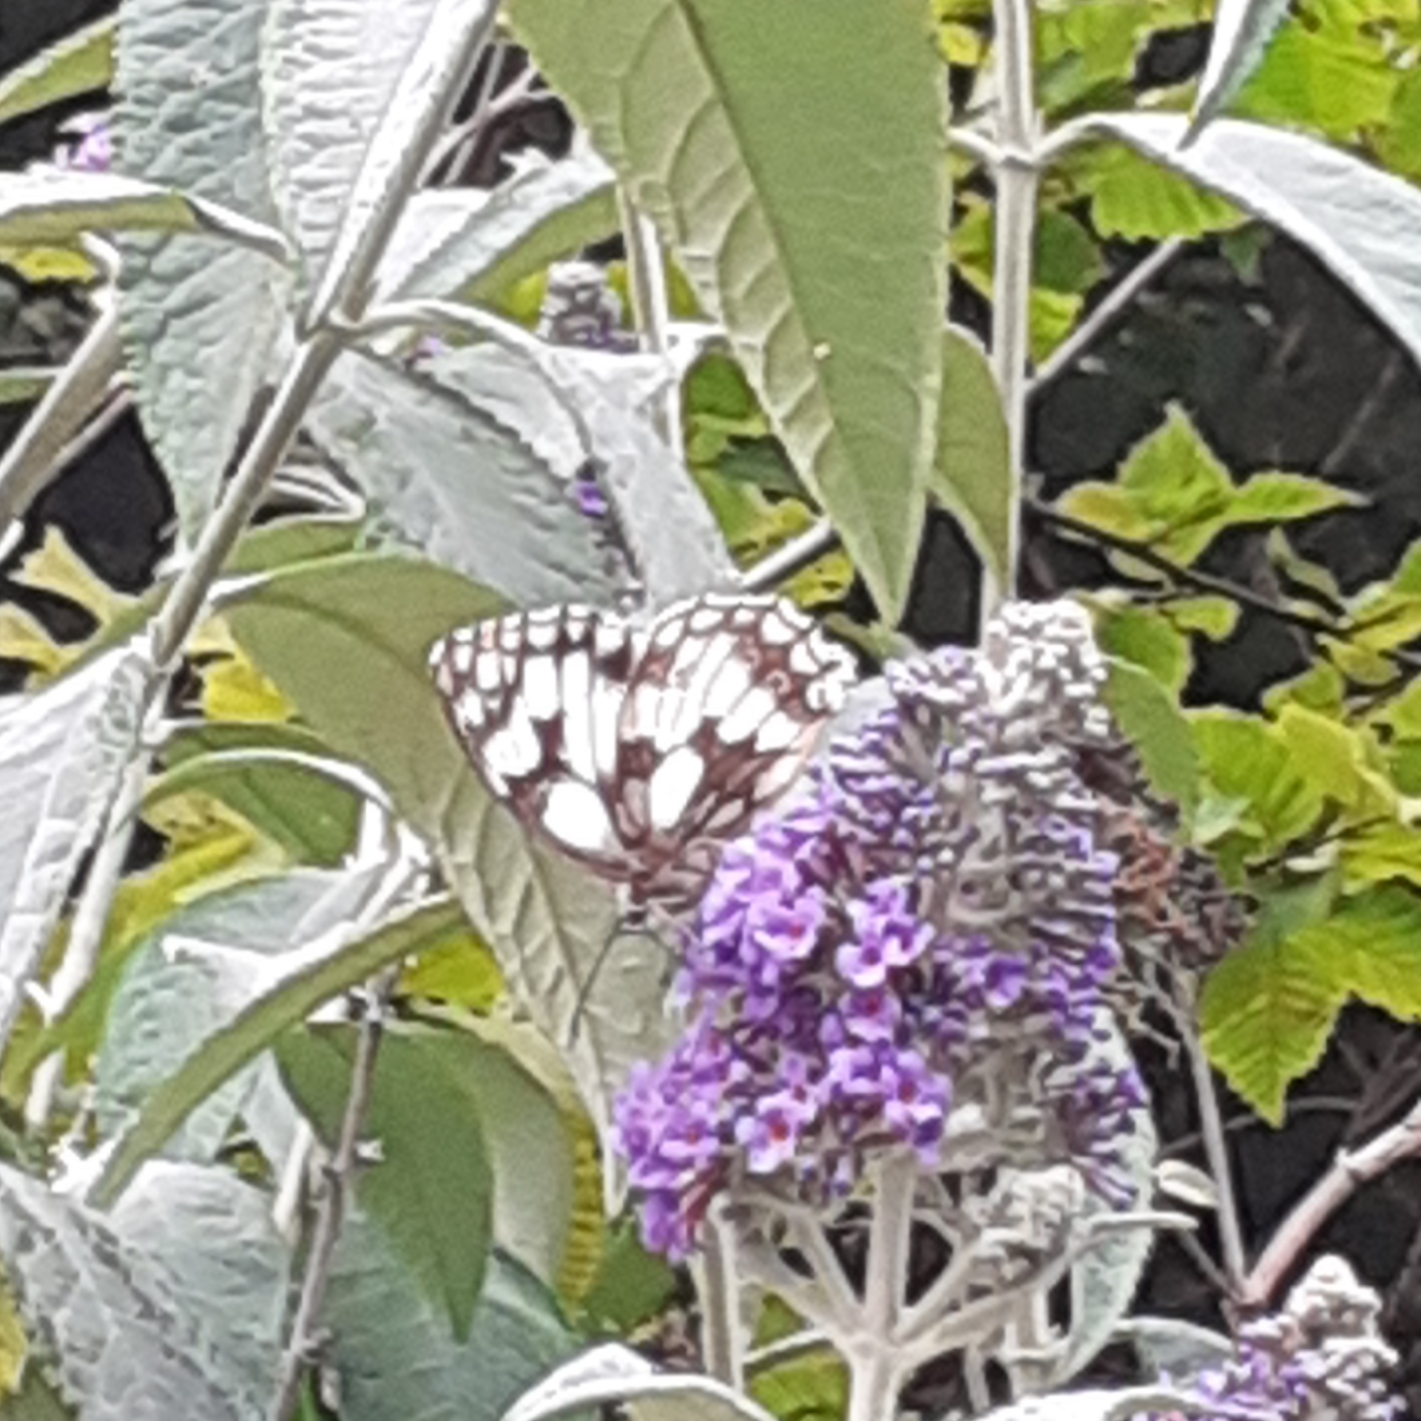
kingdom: Animalia
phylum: Arthropoda
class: Insecta
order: Lepidoptera
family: Nymphalidae
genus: Melanargia
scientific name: Melanargia galathea
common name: Marbled white
